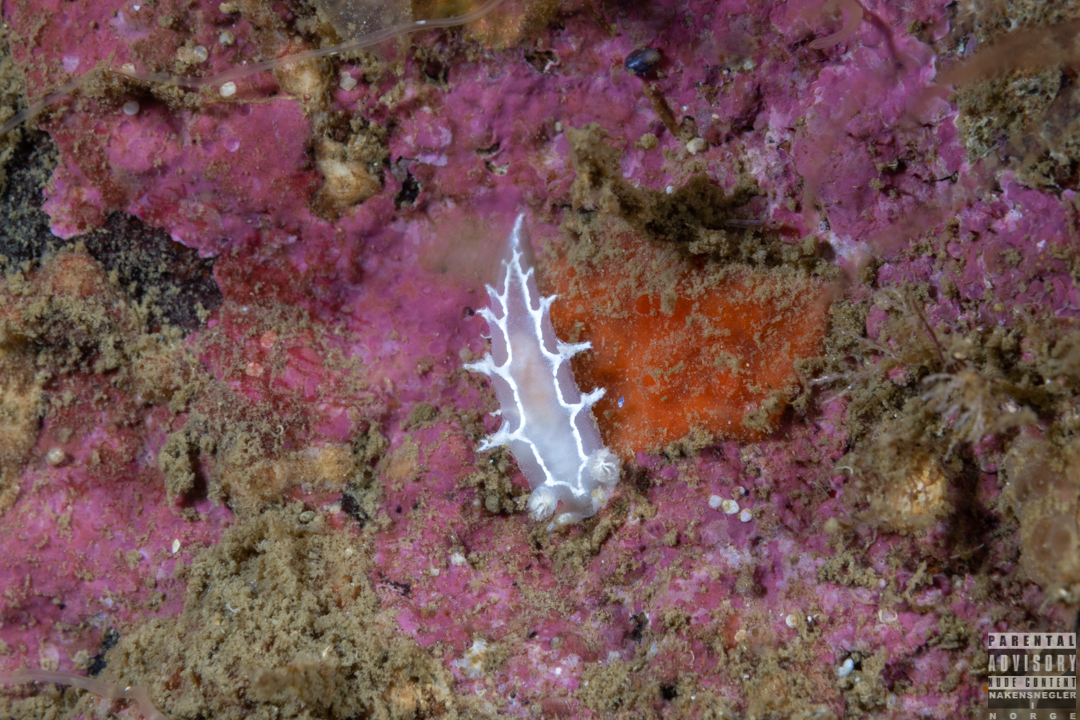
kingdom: Animalia
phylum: Mollusca
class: Gastropoda
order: Nudibranchia
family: Tritoniidae
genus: Duvaucelia
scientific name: Duvaucelia lineata
